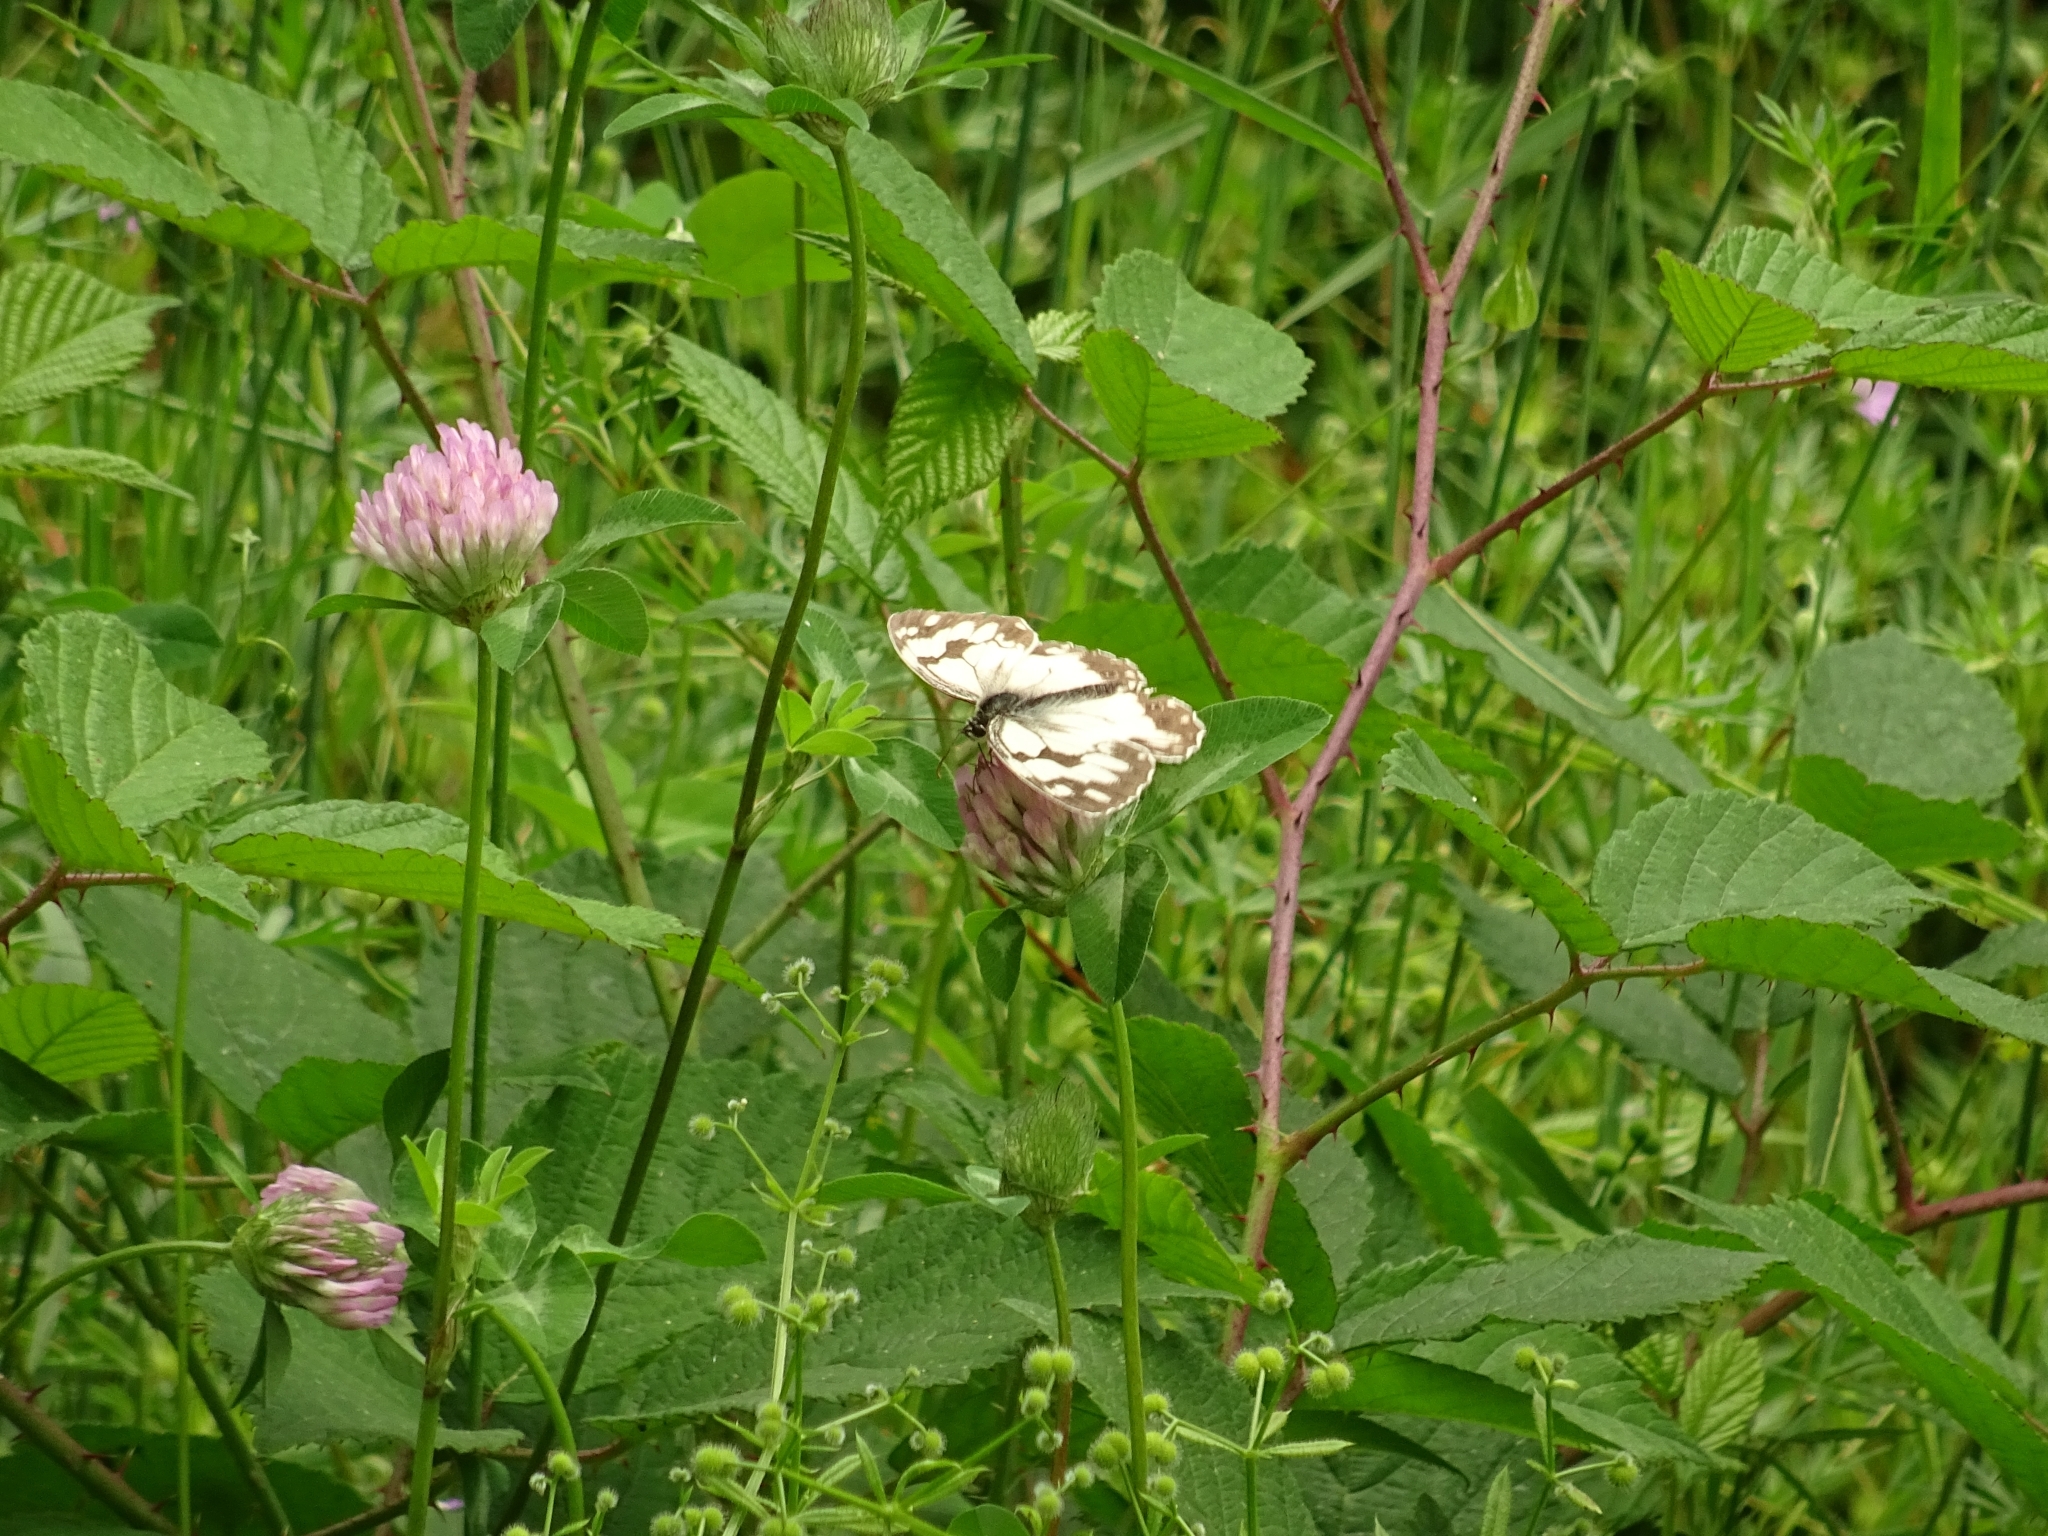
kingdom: Animalia
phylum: Arthropoda
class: Insecta
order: Lepidoptera
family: Nymphalidae
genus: Melanargia
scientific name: Melanargia lachesis
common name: Iberian marbled white
